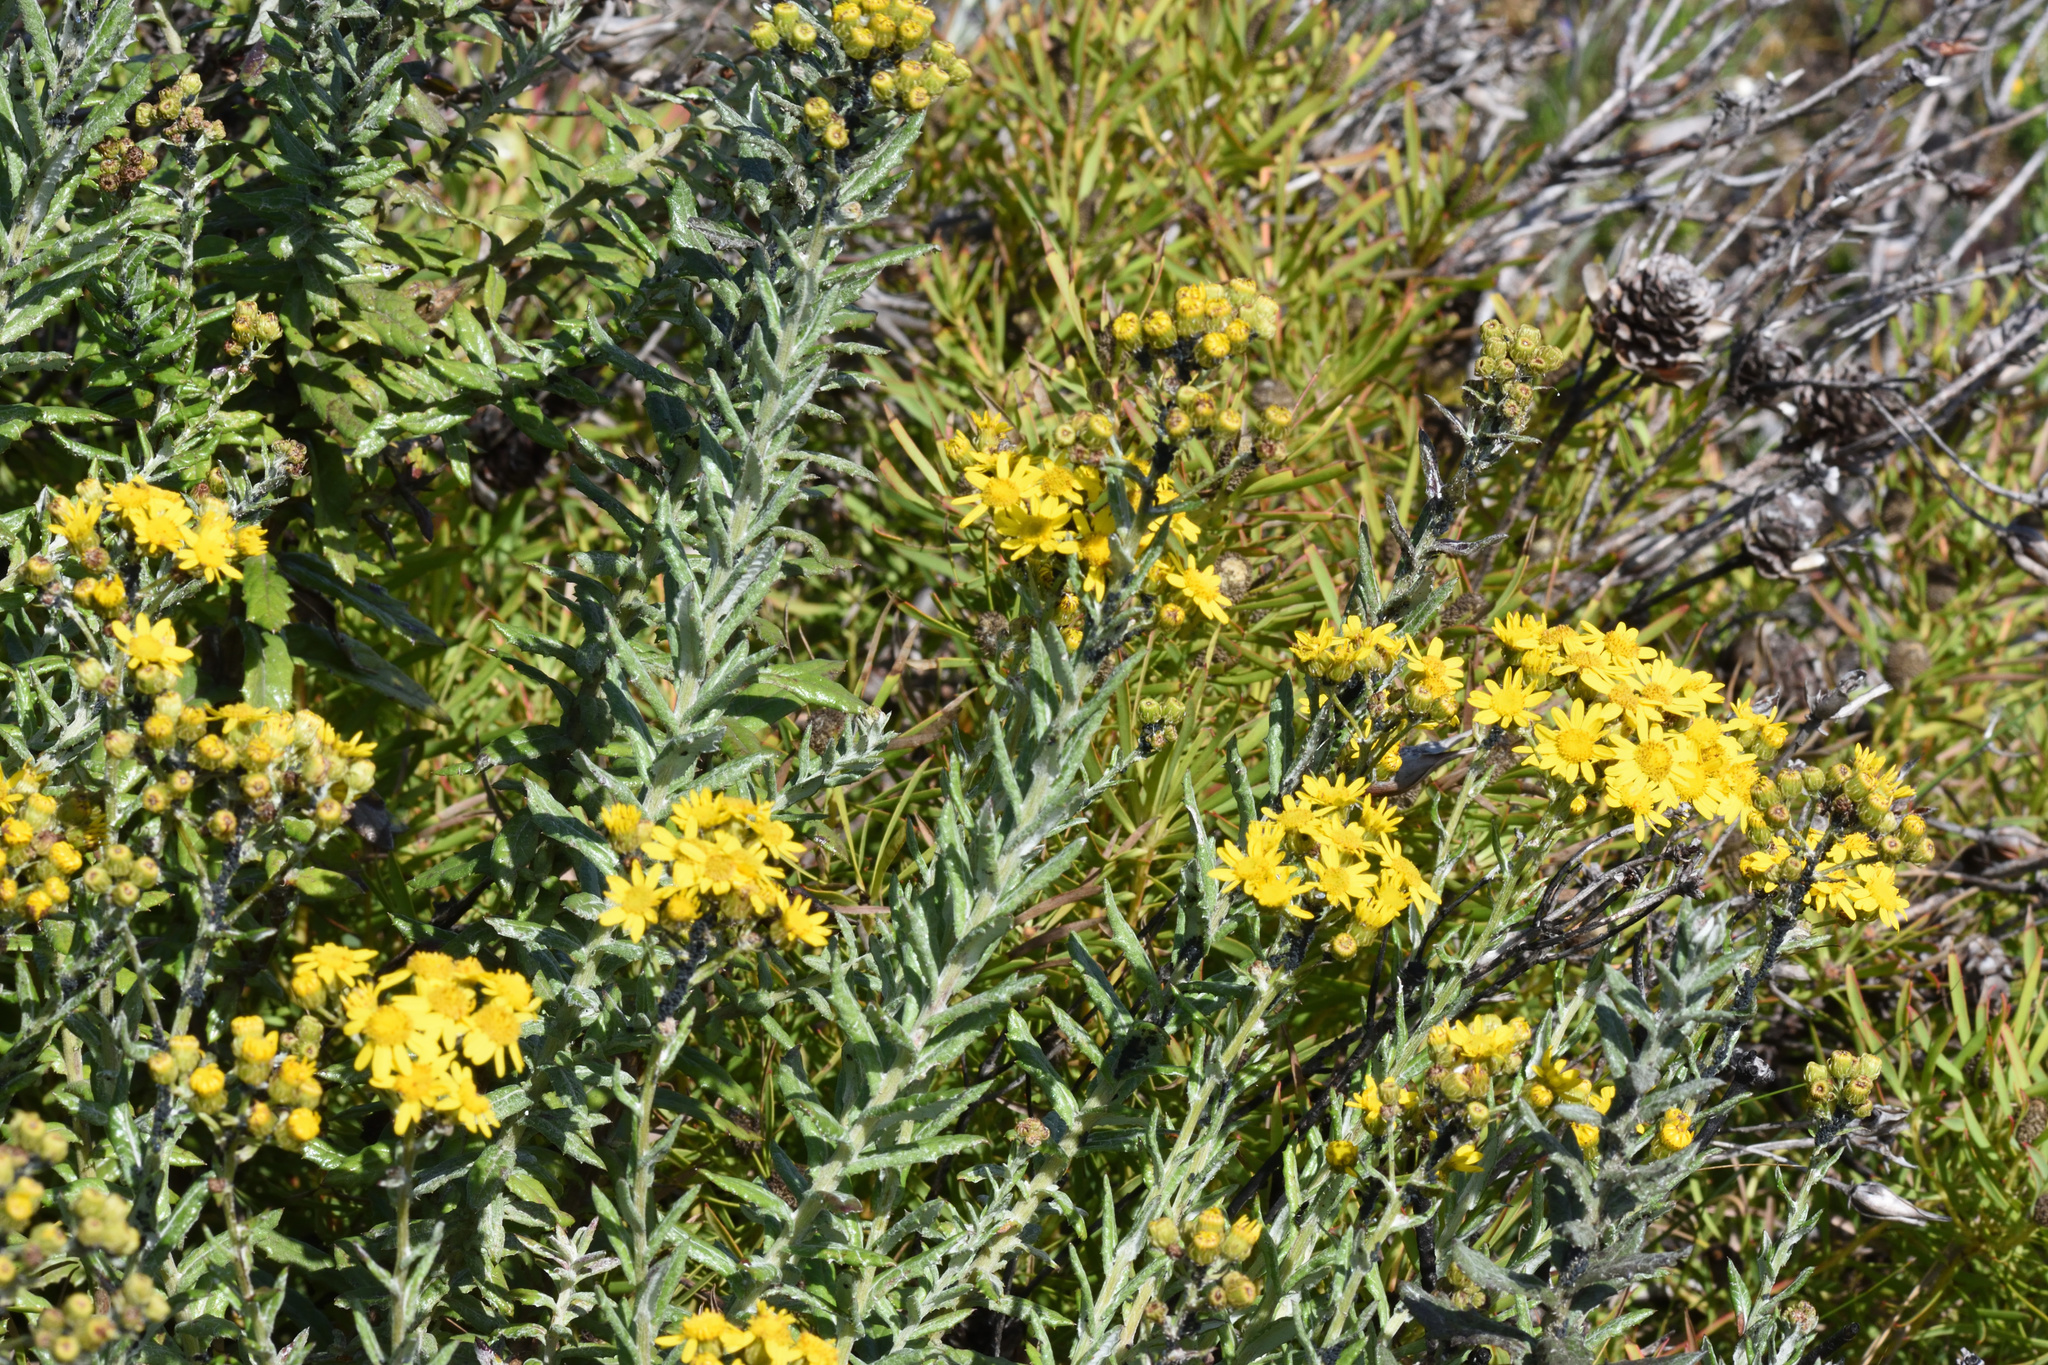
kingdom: Plantae
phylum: Tracheophyta
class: Magnoliopsida
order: Asterales
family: Asteraceae
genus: Senecio
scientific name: Senecio ilicifolius
